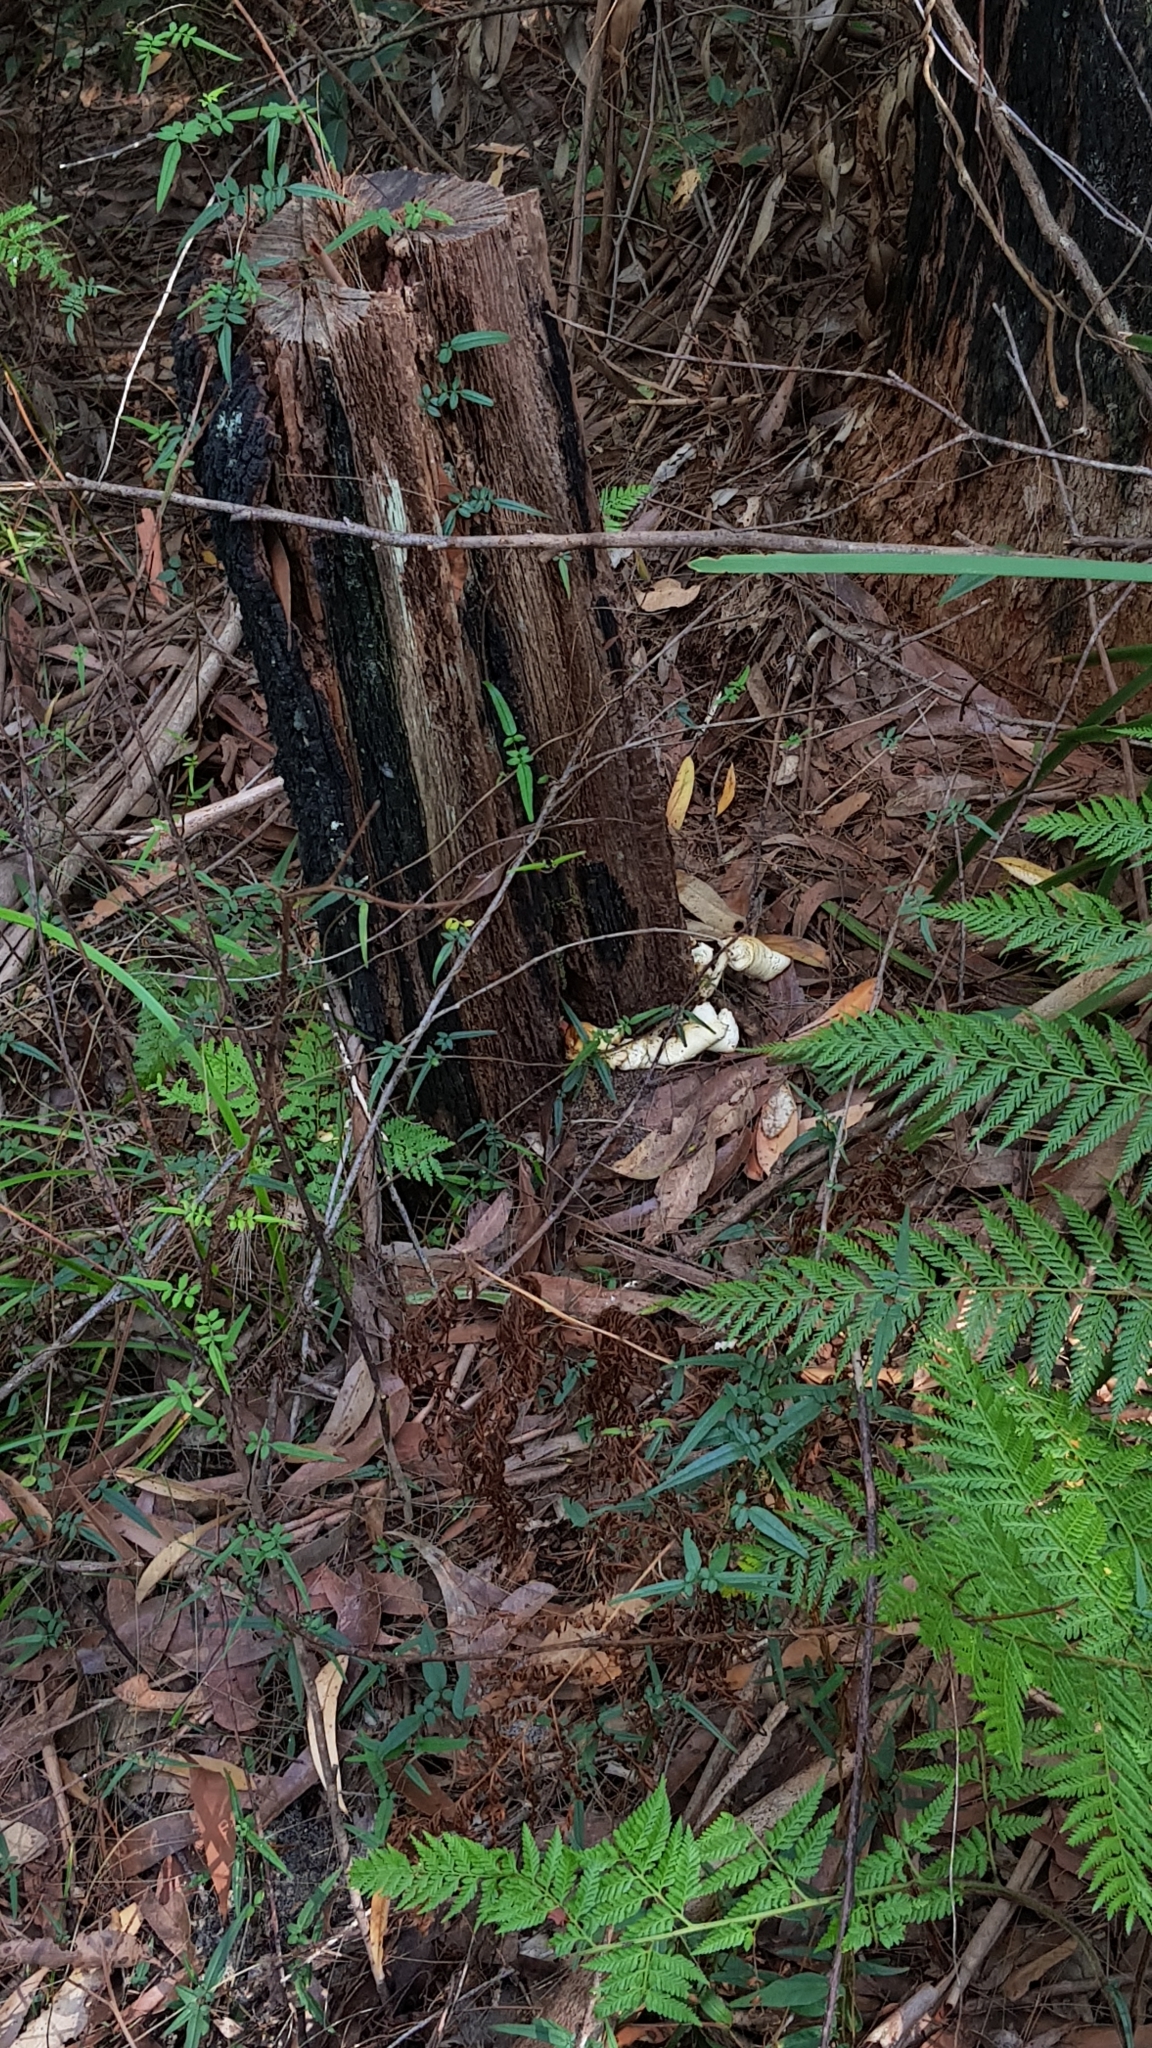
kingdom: Fungi
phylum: Basidiomycota
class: Agaricomycetes
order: Agaricales
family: Omphalotaceae
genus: Omphalotus
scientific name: Omphalotus nidiformis
